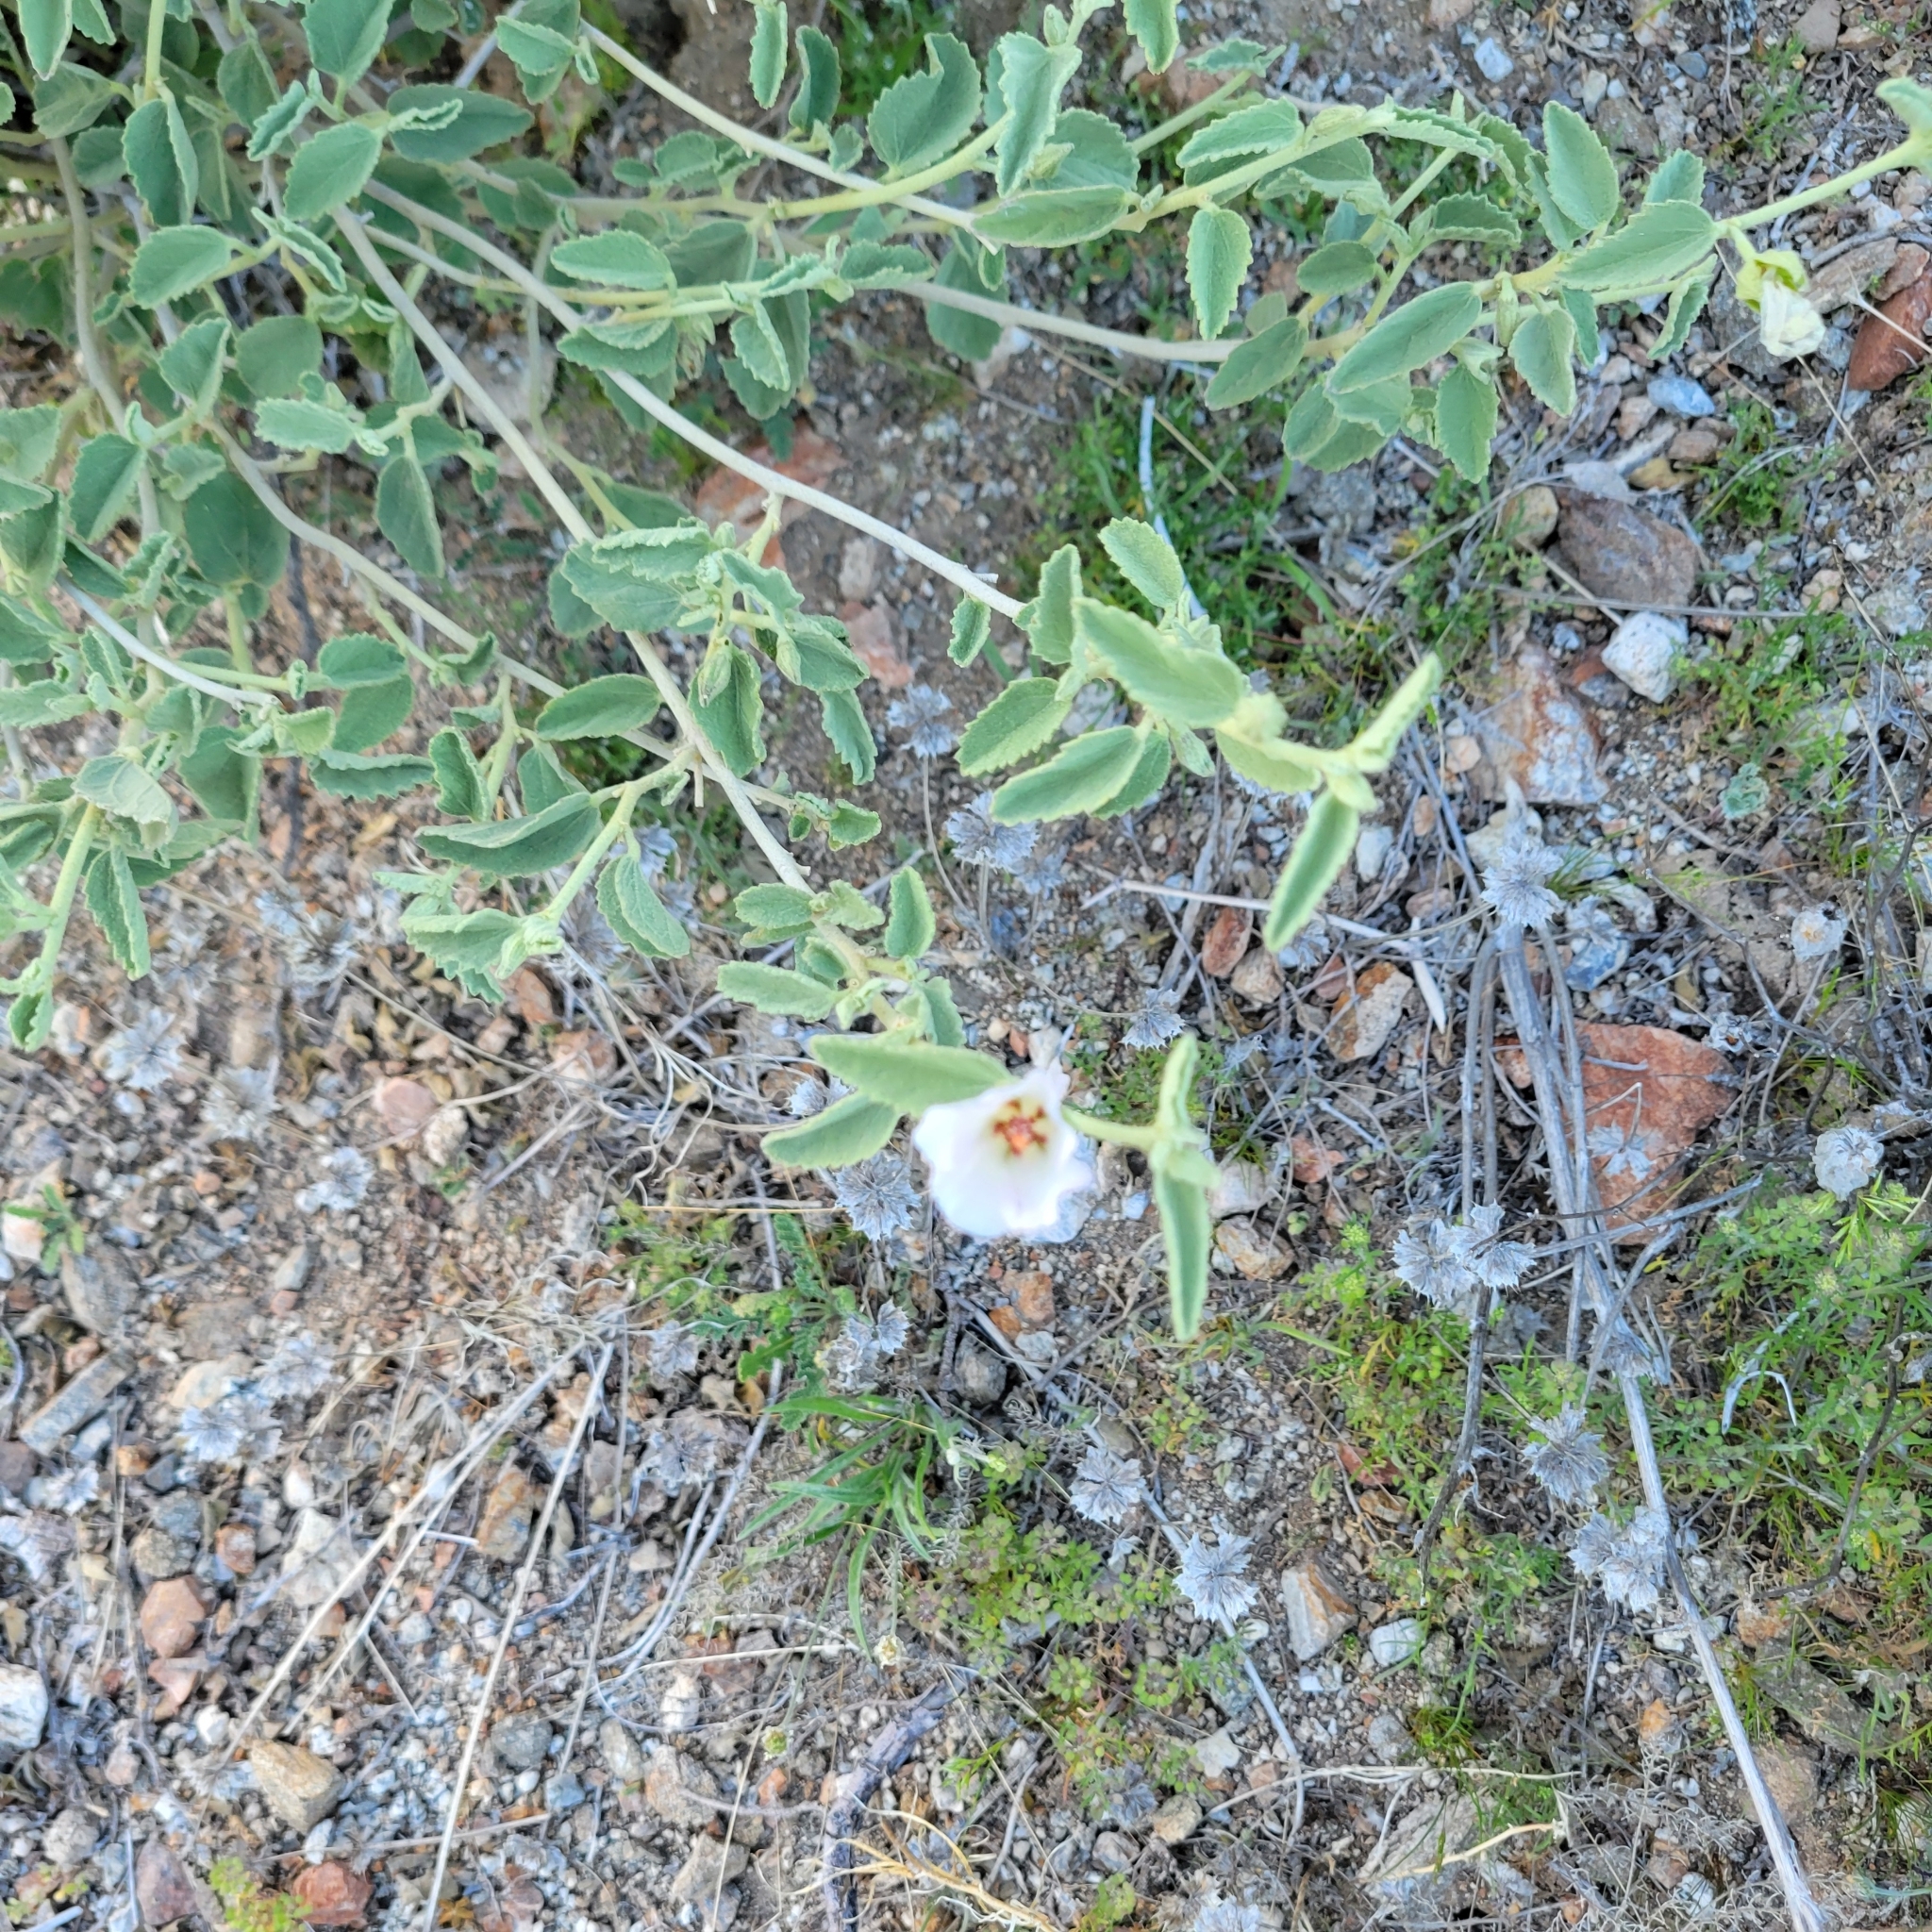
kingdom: Plantae
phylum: Tracheophyta
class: Magnoliopsida
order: Malvales
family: Malvaceae
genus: Hibiscus
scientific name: Hibiscus denudatus
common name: Paleface
